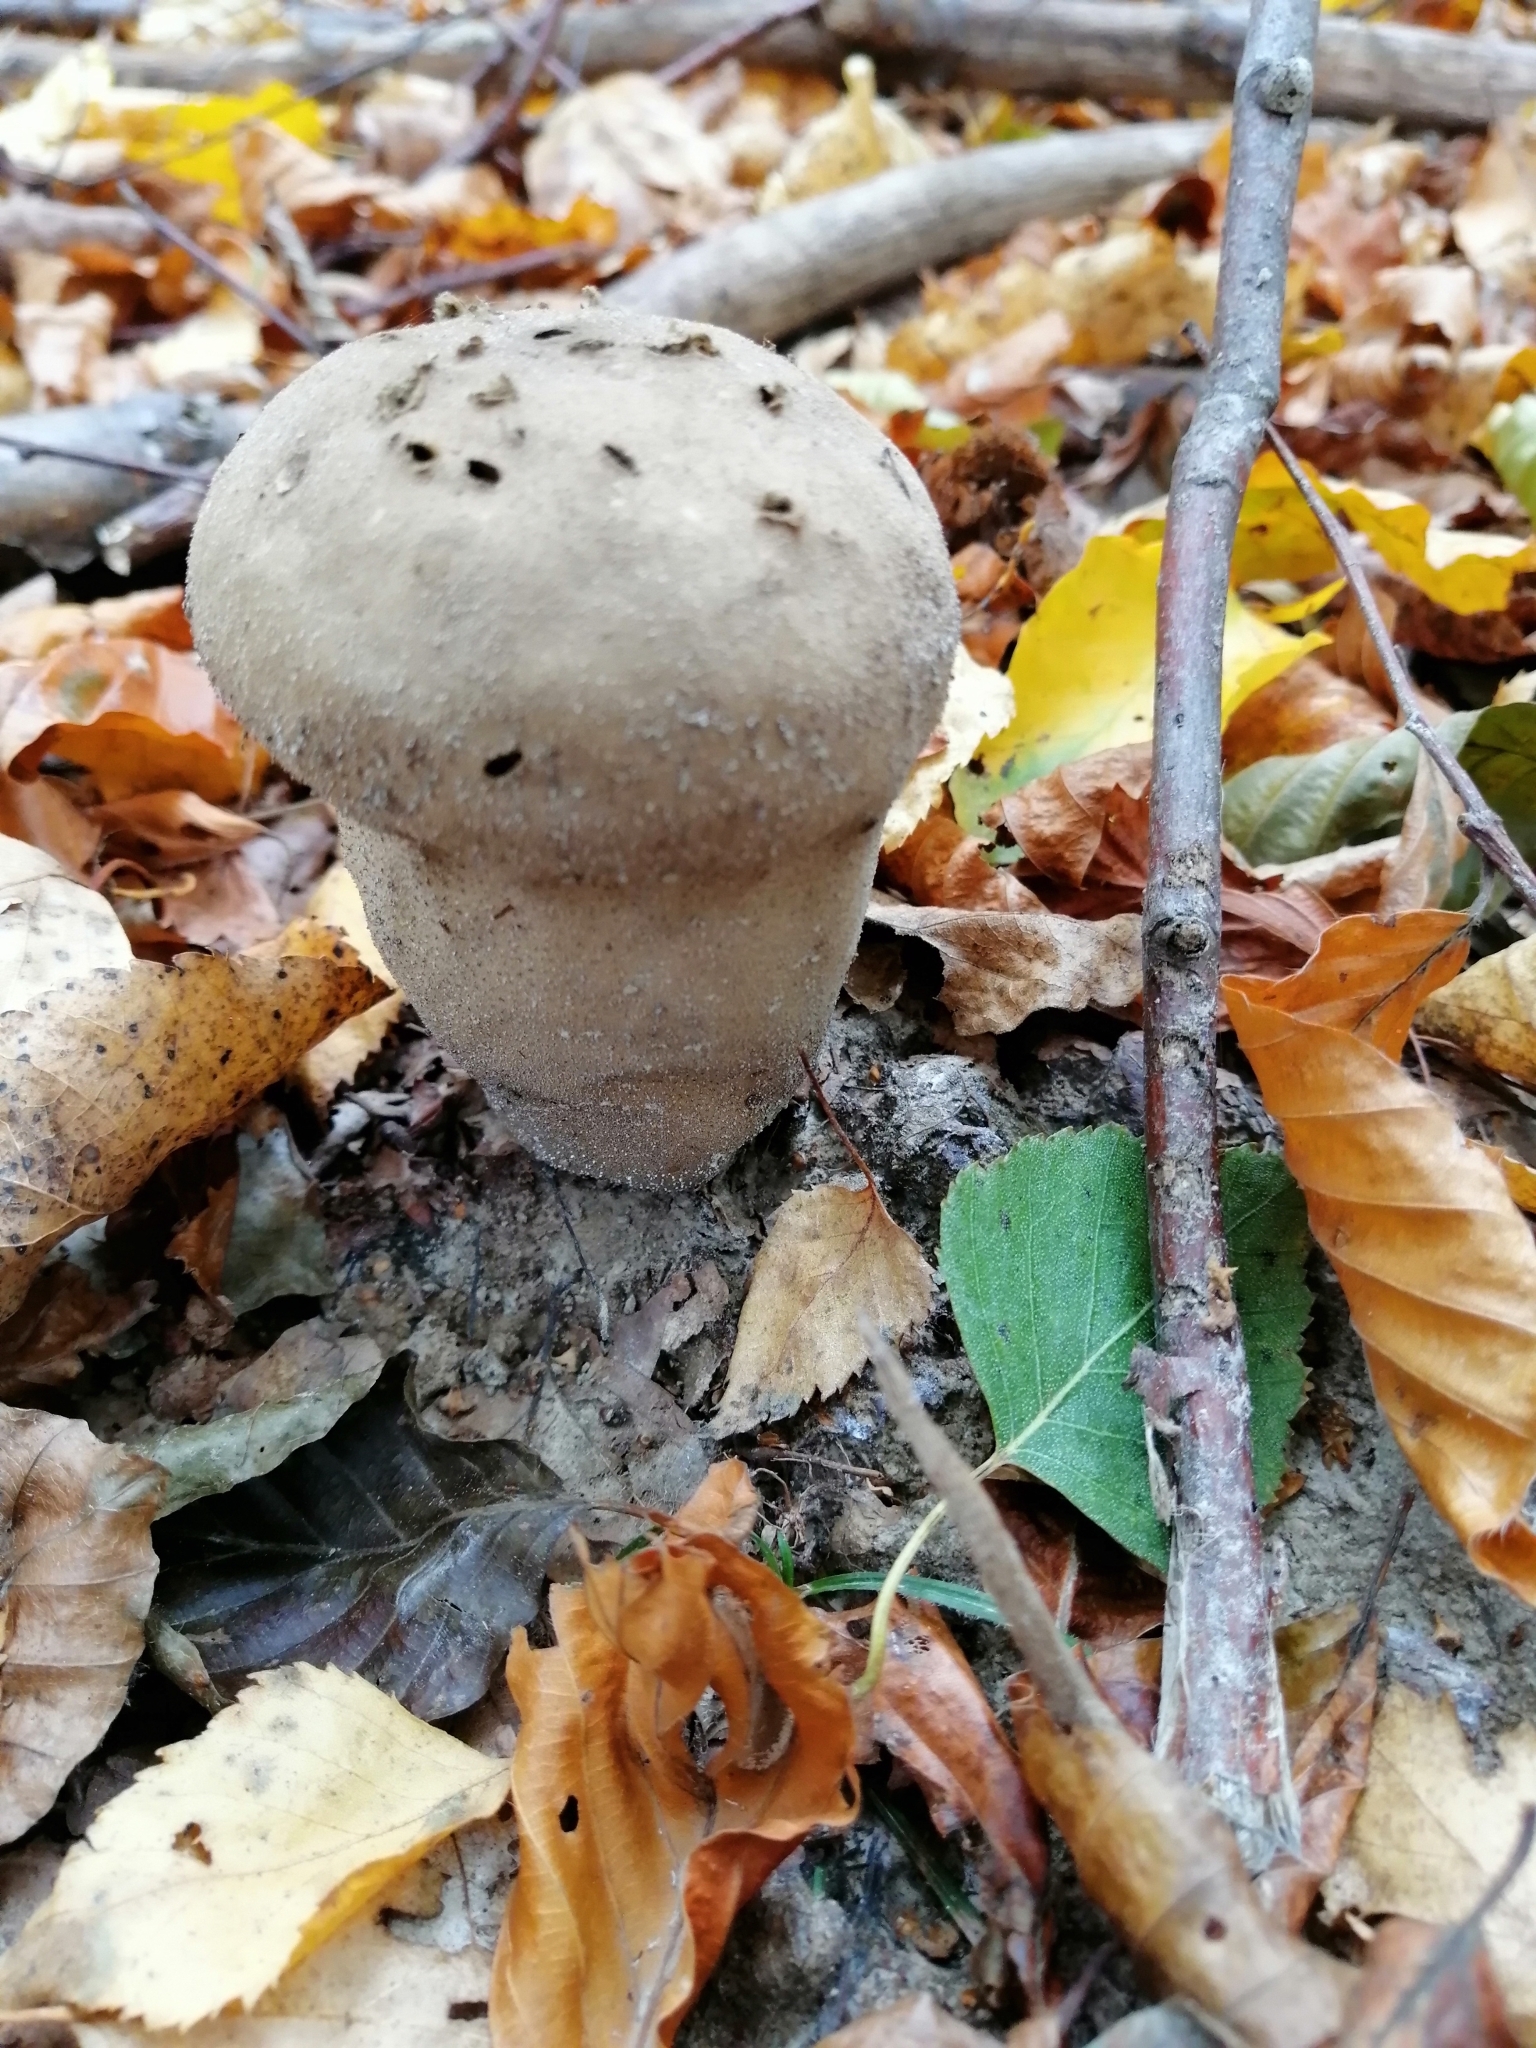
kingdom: Fungi
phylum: Basidiomycota
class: Agaricomycetes
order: Agaricales
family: Lycoperdaceae
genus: Lycoperdon
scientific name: Lycoperdon excipuliforme
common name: Pestle puffball
